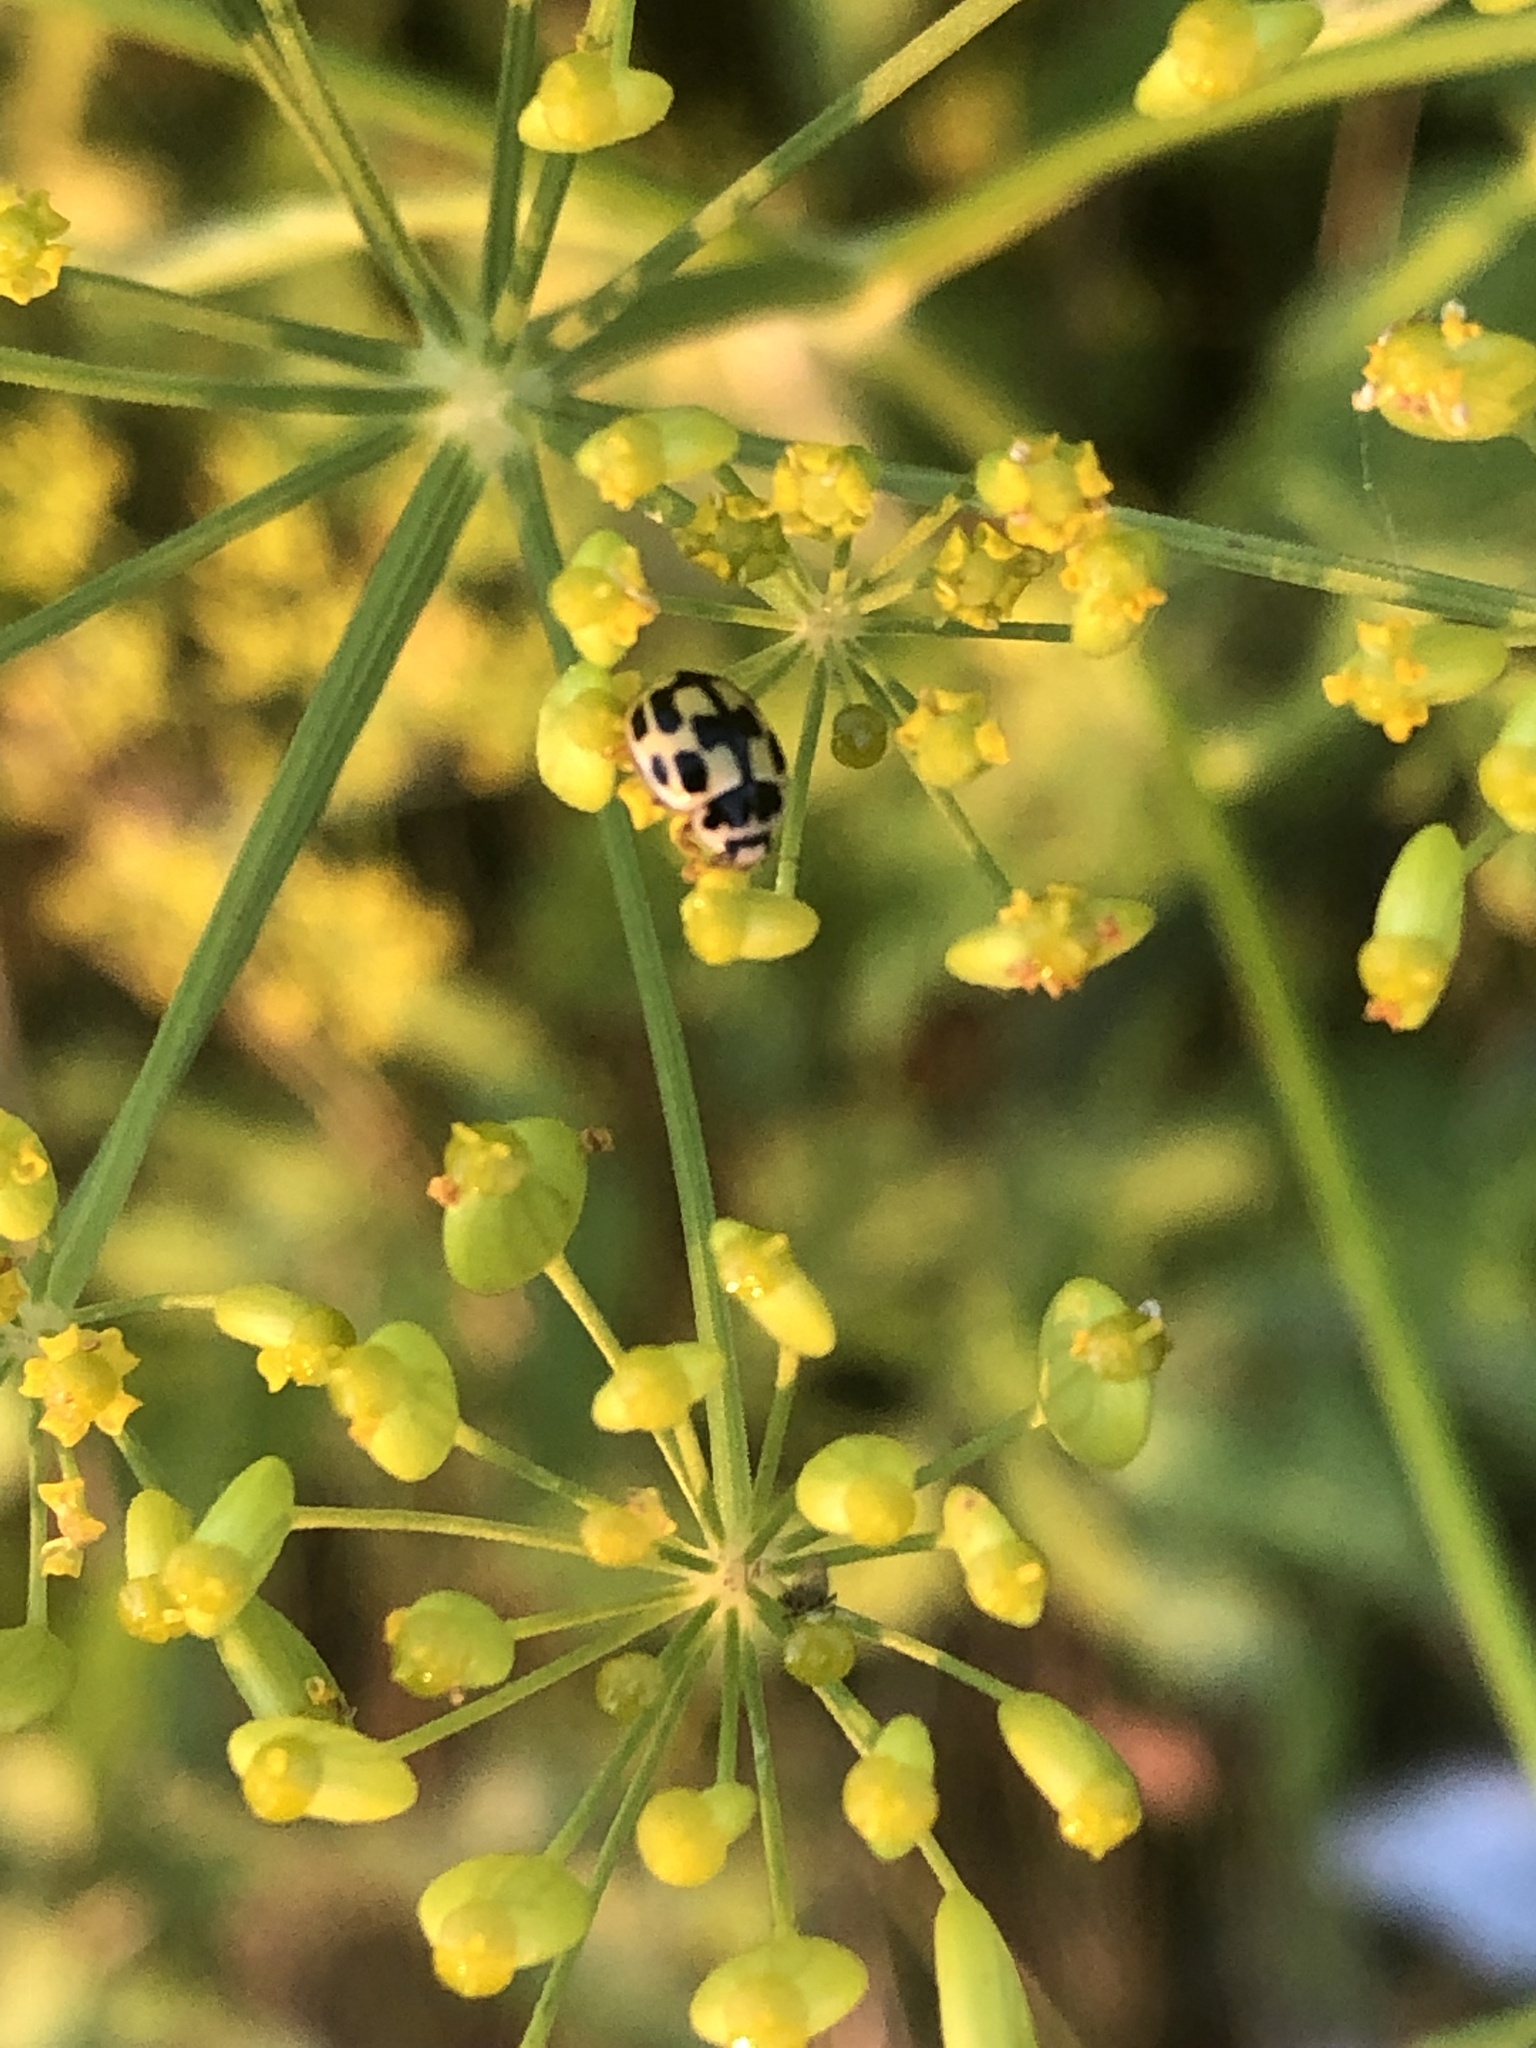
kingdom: Animalia
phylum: Arthropoda
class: Insecta
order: Coleoptera
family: Coccinellidae
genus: Propylaea
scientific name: Propylaea quatuordecimpunctata
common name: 14-spotted ladybird beetle
